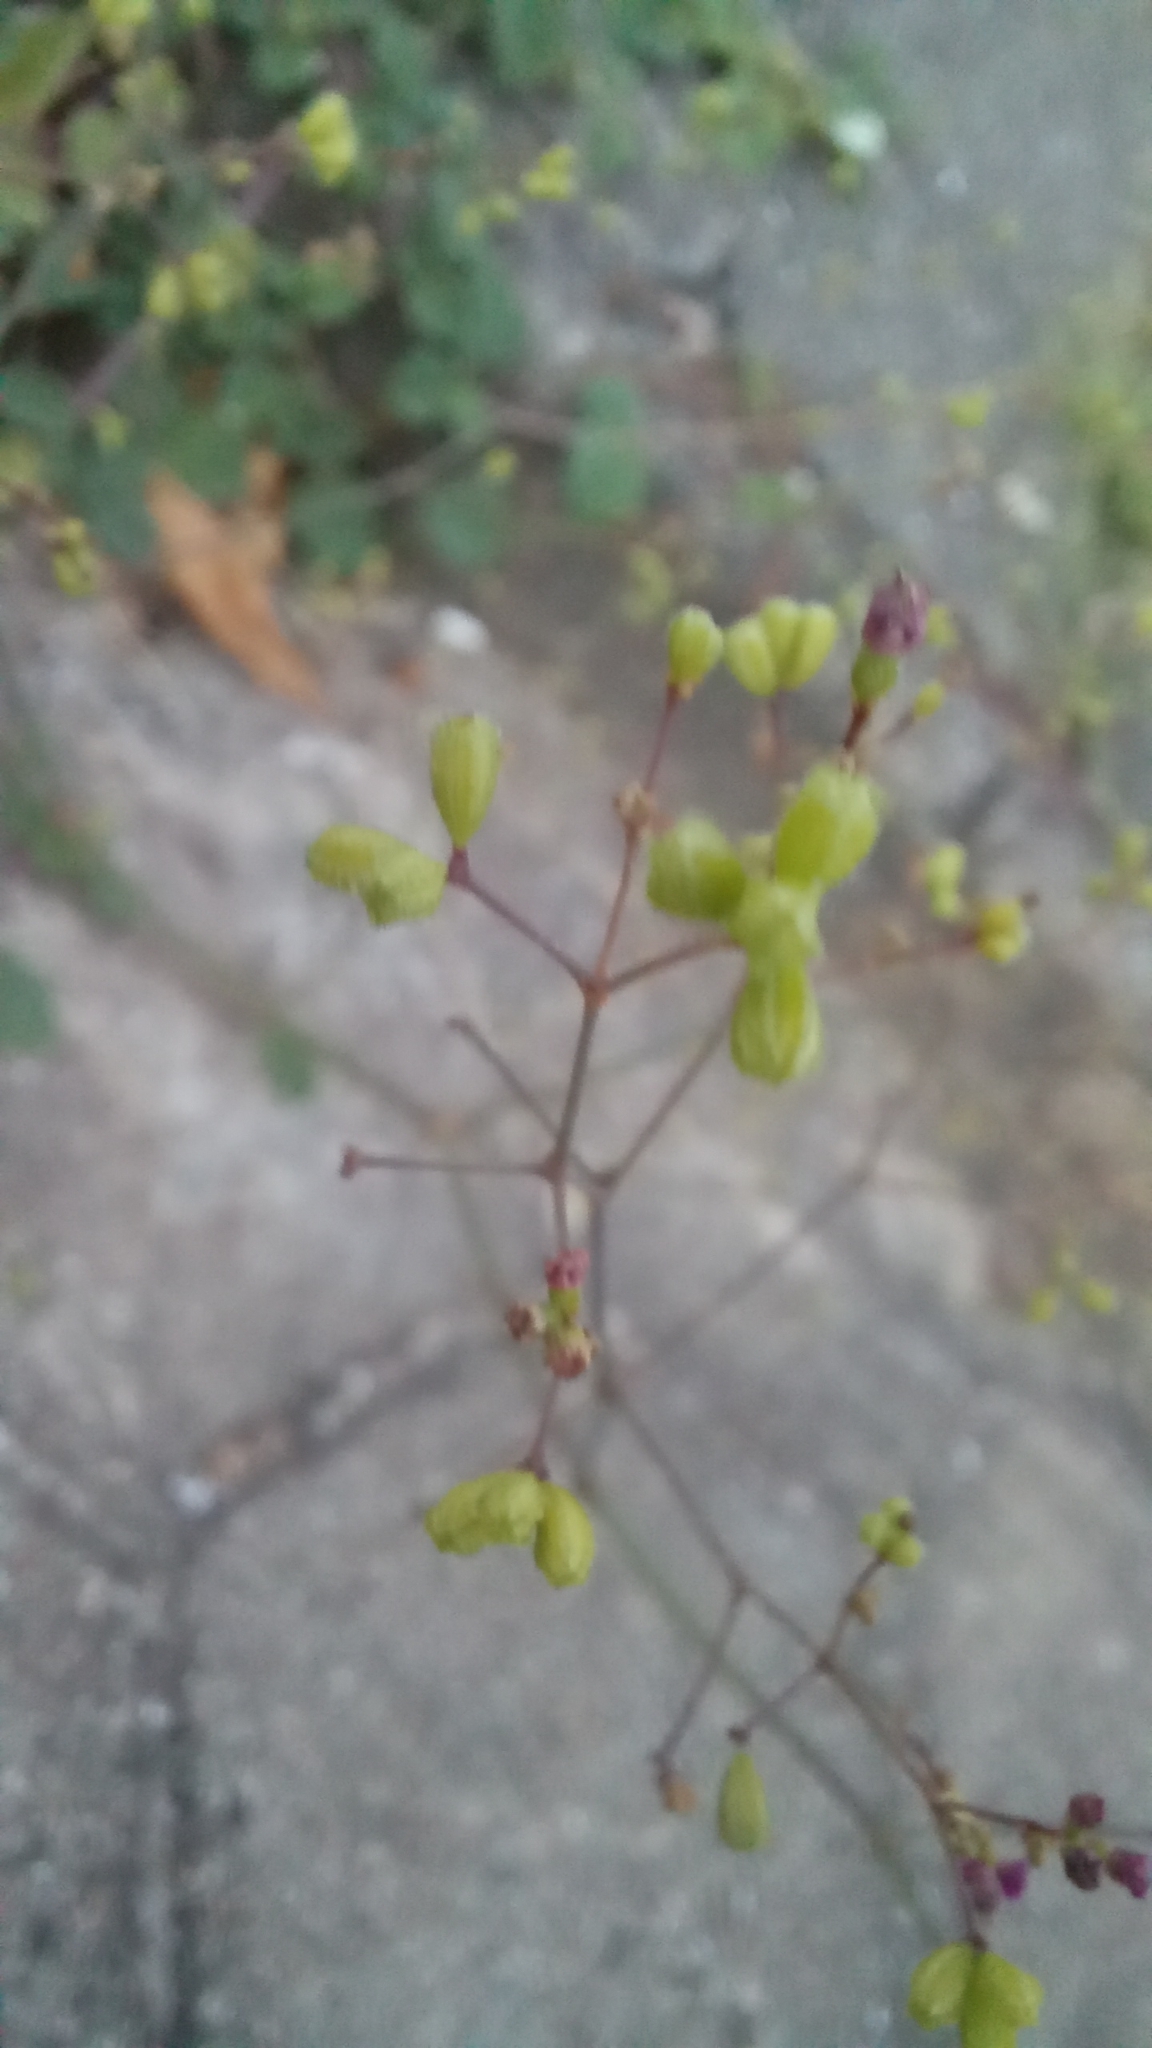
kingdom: Plantae
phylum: Tracheophyta
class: Magnoliopsida
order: Caryophyllales
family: Nyctaginaceae
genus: Boerhavia
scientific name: Boerhavia diffusa
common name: Red spiderling
